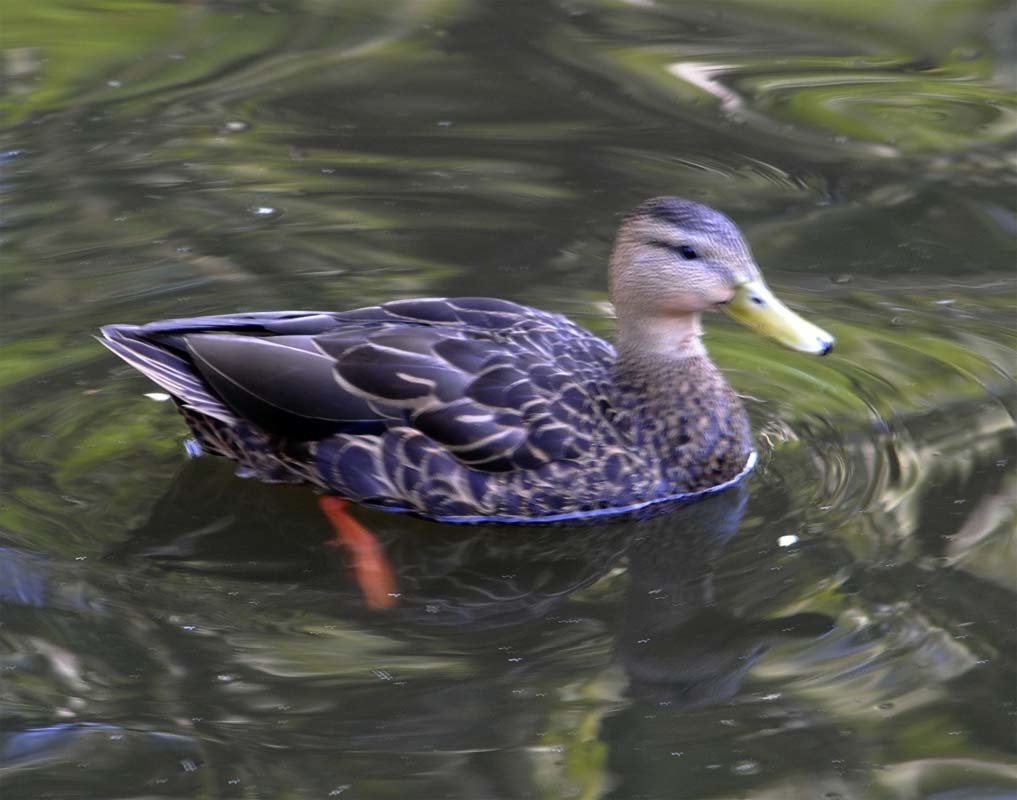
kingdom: Animalia
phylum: Chordata
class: Aves
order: Anseriformes
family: Anatidae
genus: Anas
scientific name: Anas diazi
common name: Mexican duck
